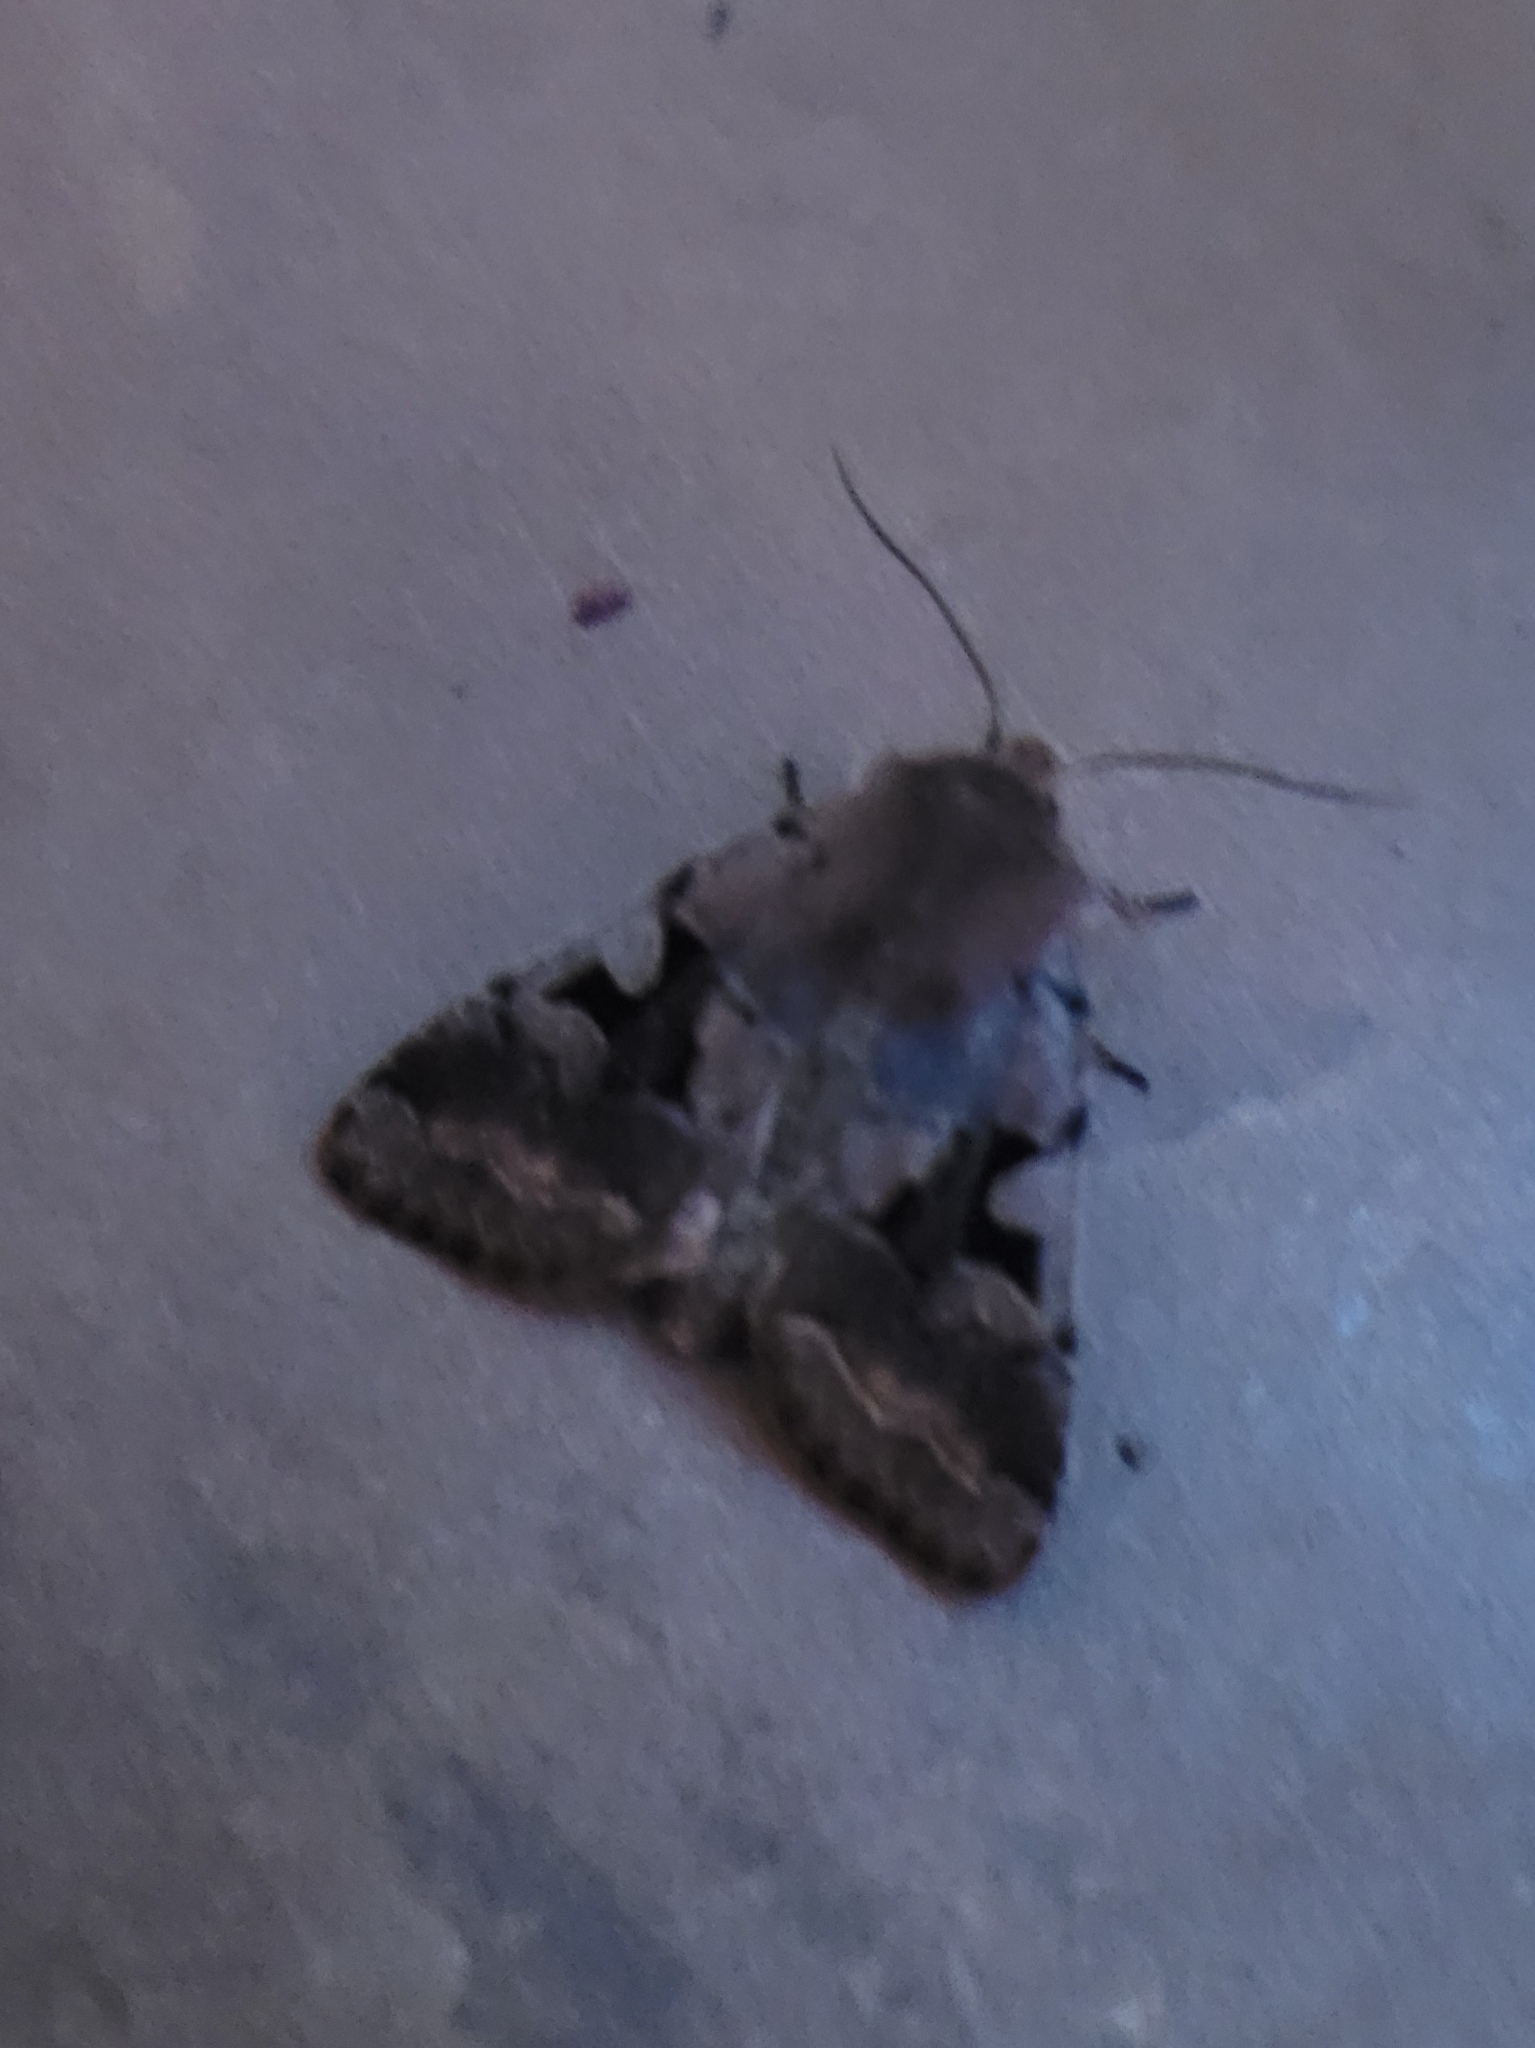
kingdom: Animalia
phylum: Arthropoda
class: Insecta
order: Lepidoptera
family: Noctuidae
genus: Orthosia
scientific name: Orthosia gothica
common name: Hebrew character
